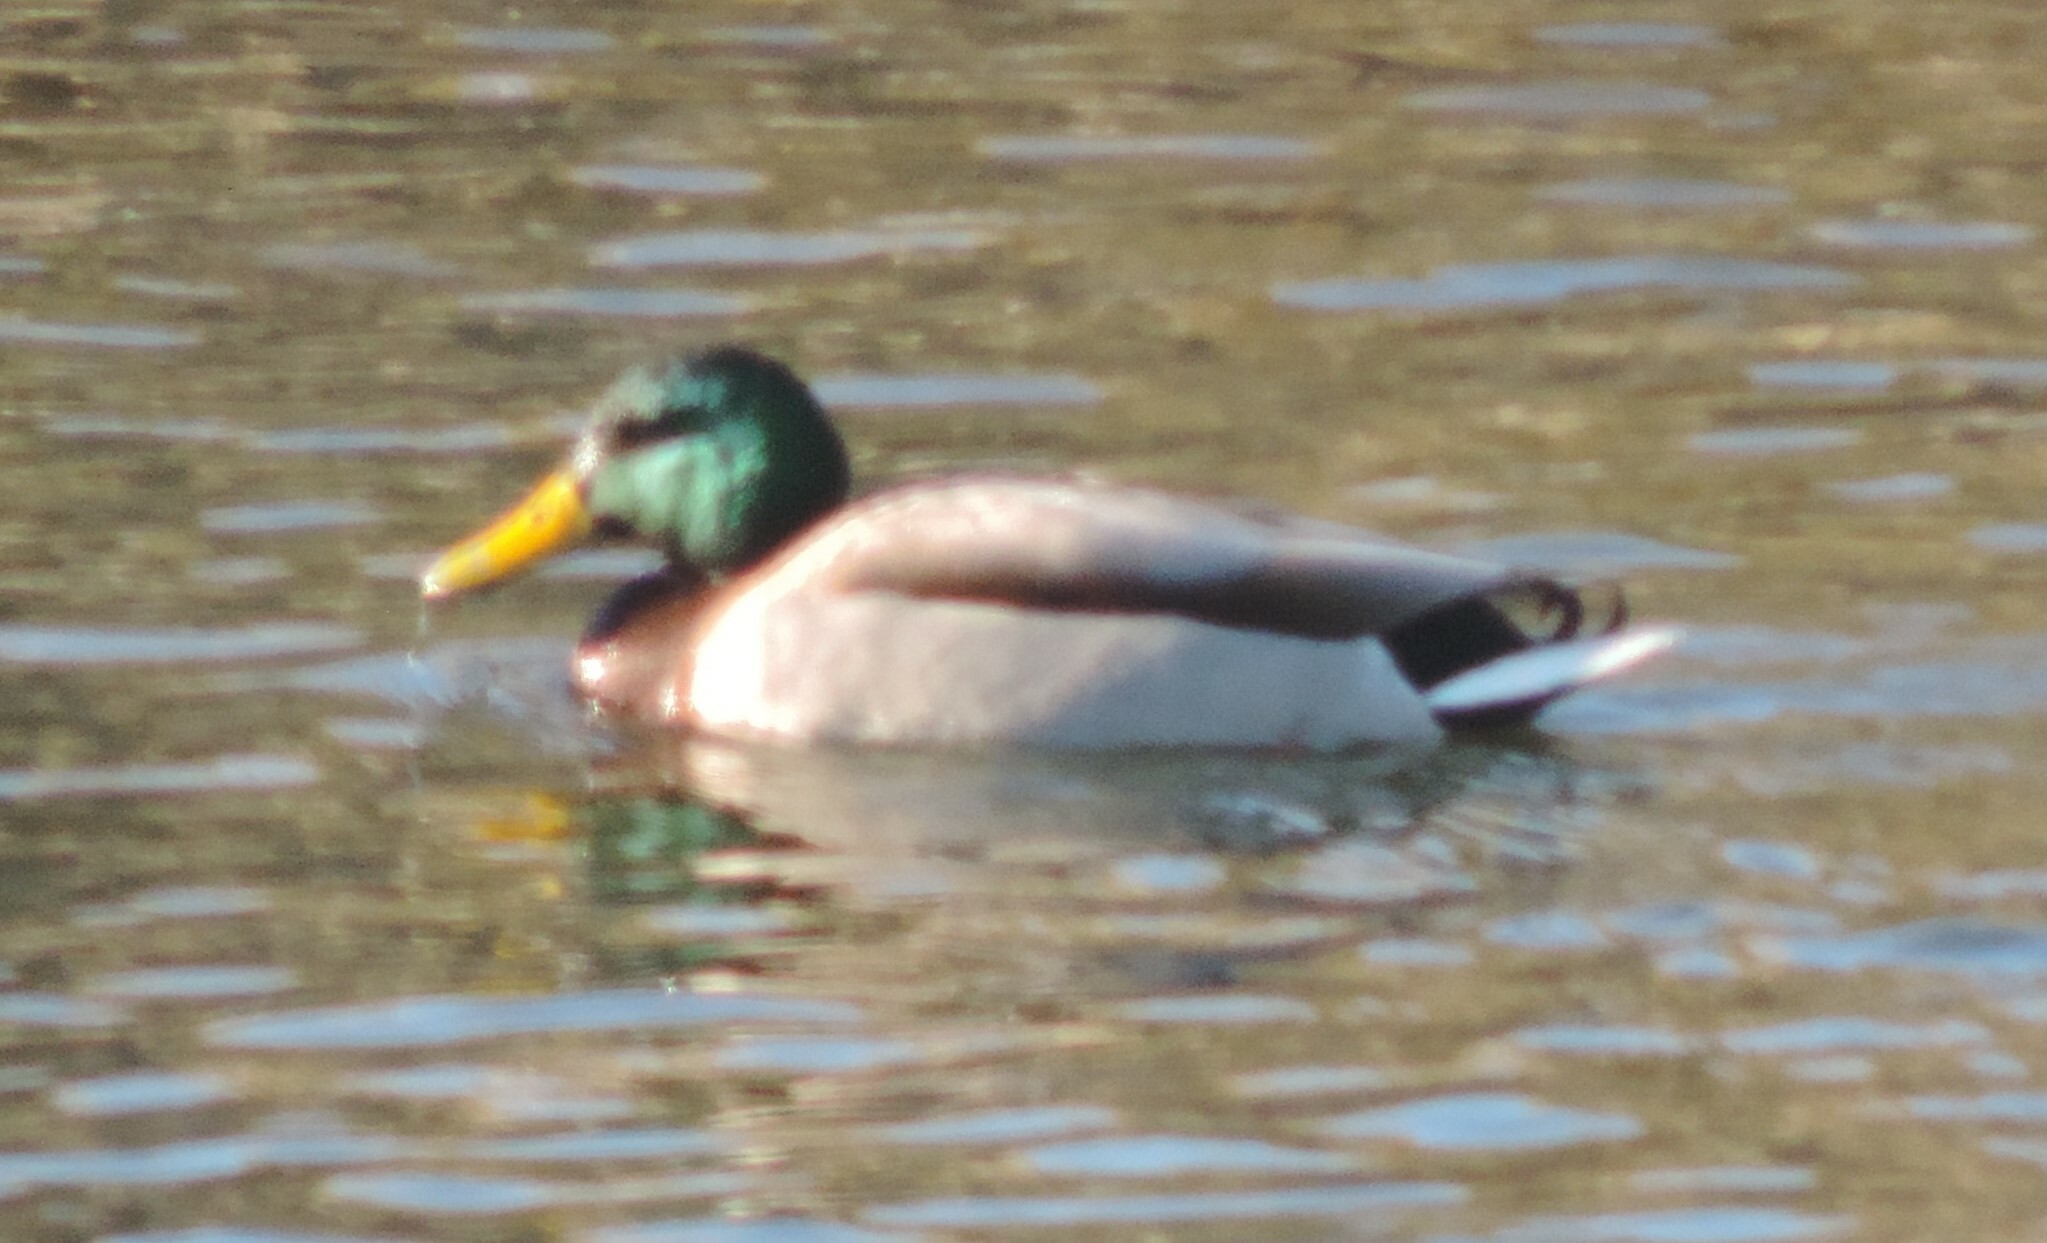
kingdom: Animalia
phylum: Chordata
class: Aves
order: Anseriformes
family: Anatidae
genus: Anas
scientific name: Anas platyrhynchos
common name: Mallard
